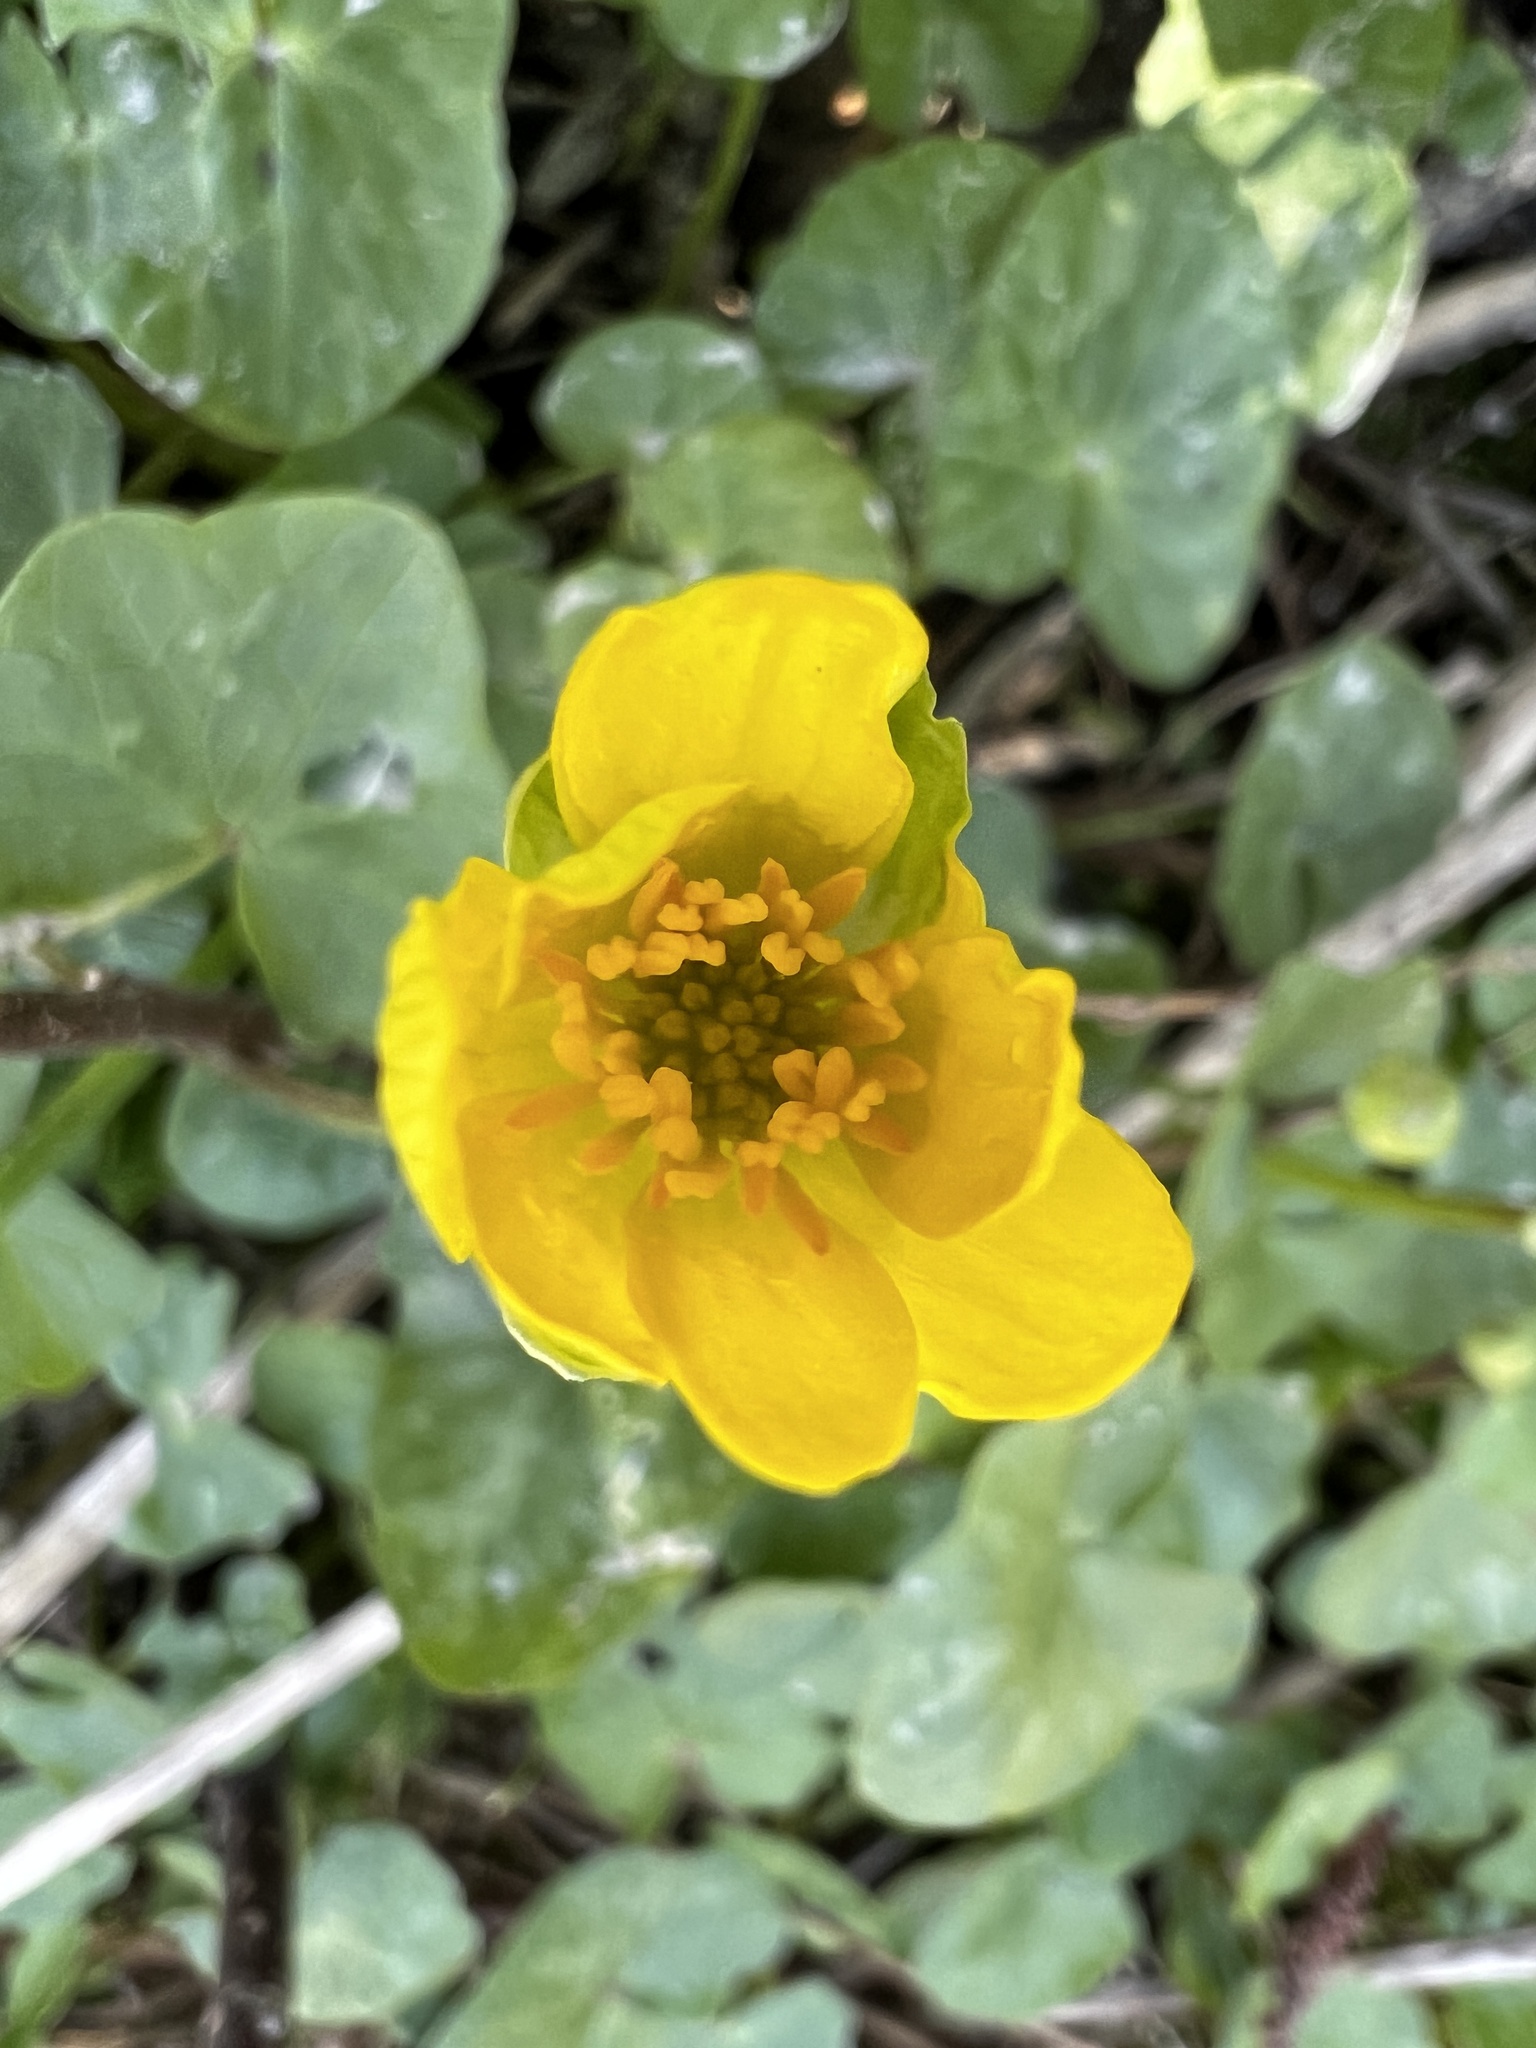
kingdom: Plantae
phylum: Tracheophyta
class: Magnoliopsida
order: Ranunculales
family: Ranunculaceae
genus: Ficaria
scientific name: Ficaria verna
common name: Lesser celandine
